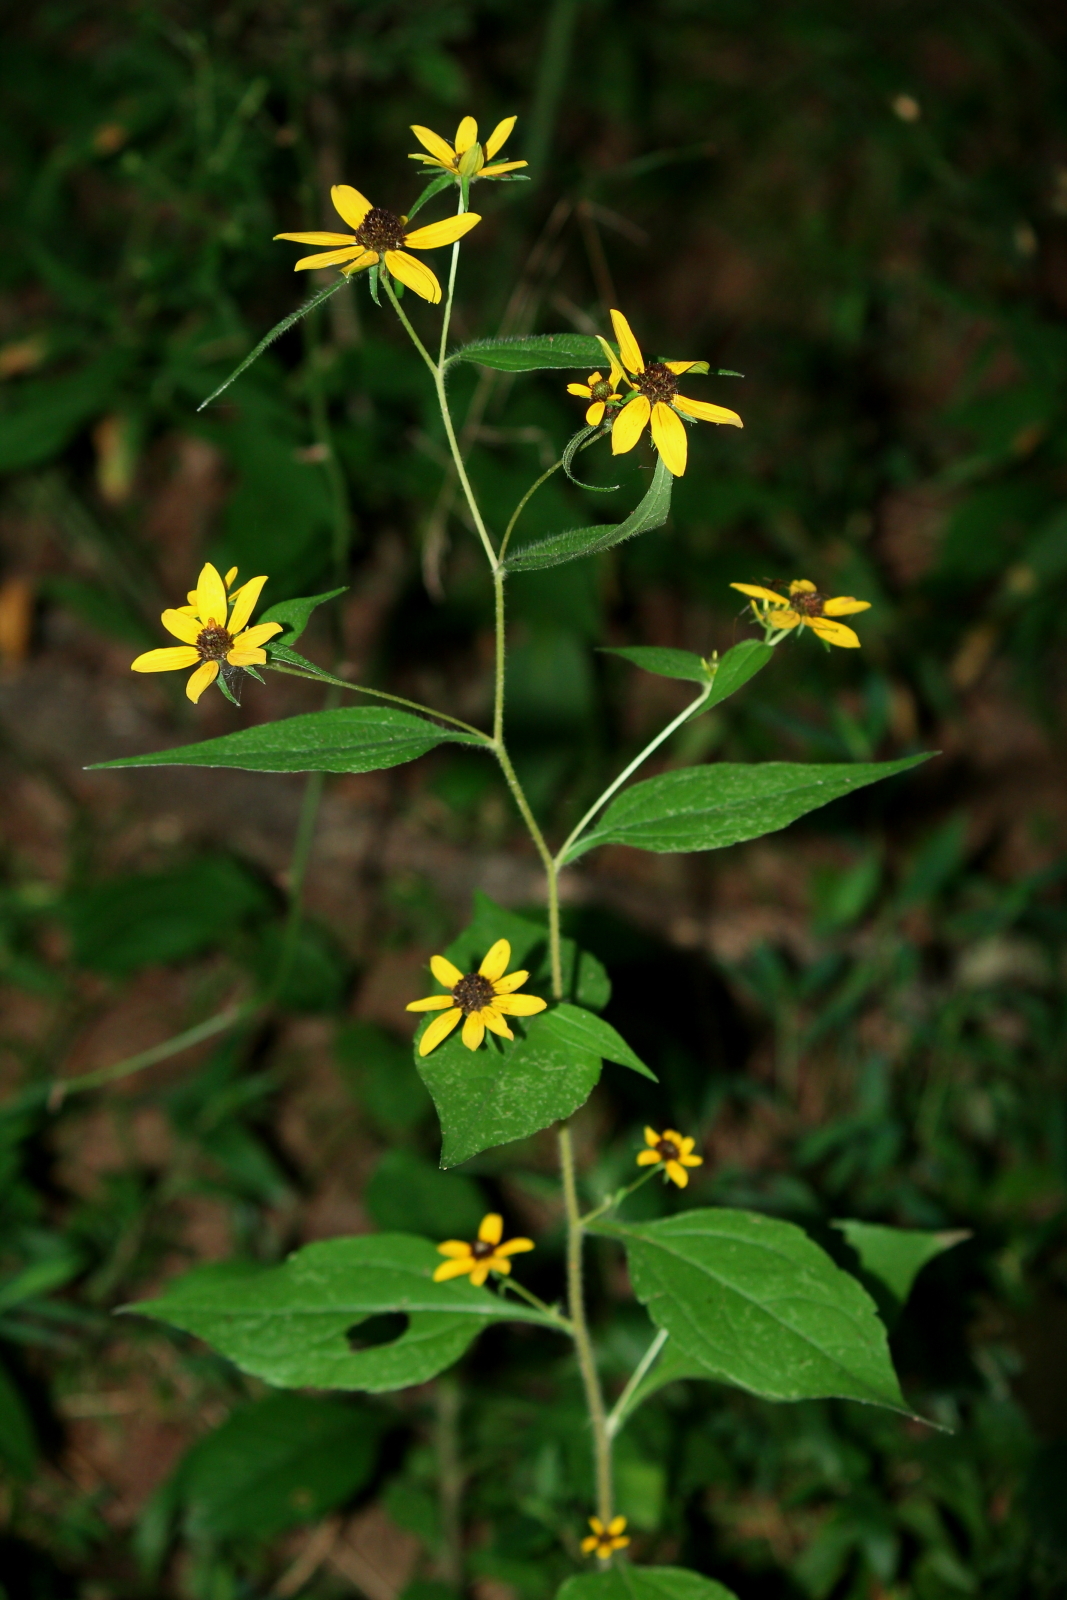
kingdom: Plantae
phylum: Tracheophyta
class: Magnoliopsida
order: Asterales
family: Asteraceae
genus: Rudbeckia
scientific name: Rudbeckia triloba
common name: Thin-leaved coneflower
